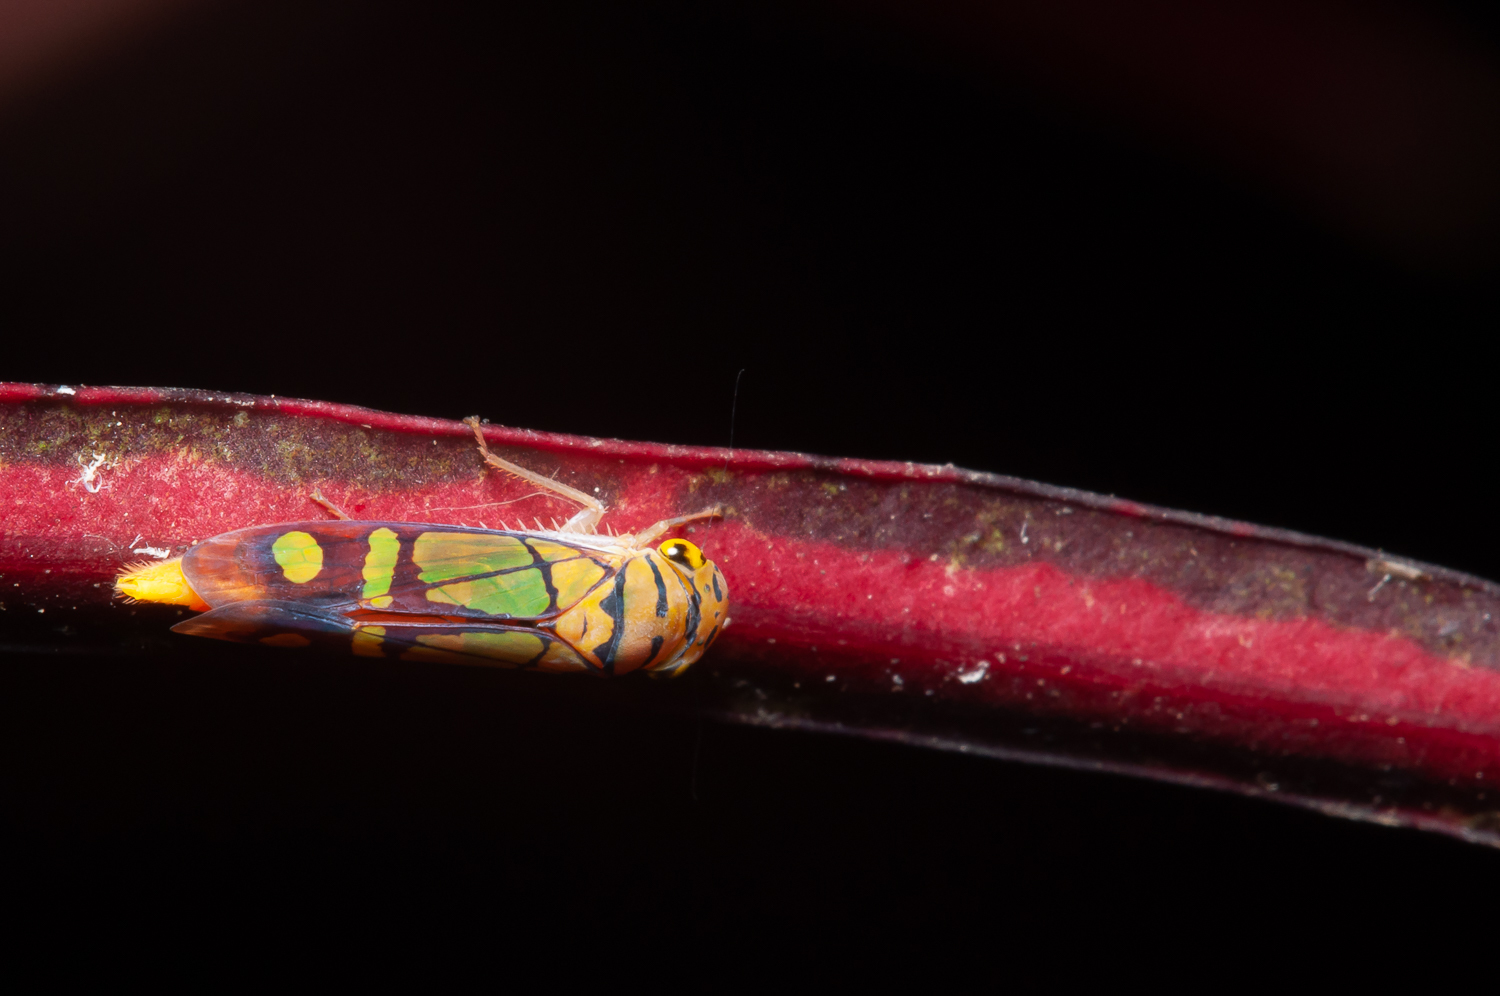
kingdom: Animalia
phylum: Arthropoda
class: Insecta
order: Hemiptera
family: Cicadellidae
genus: Dilobopterus
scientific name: Dilobopterus instratus
